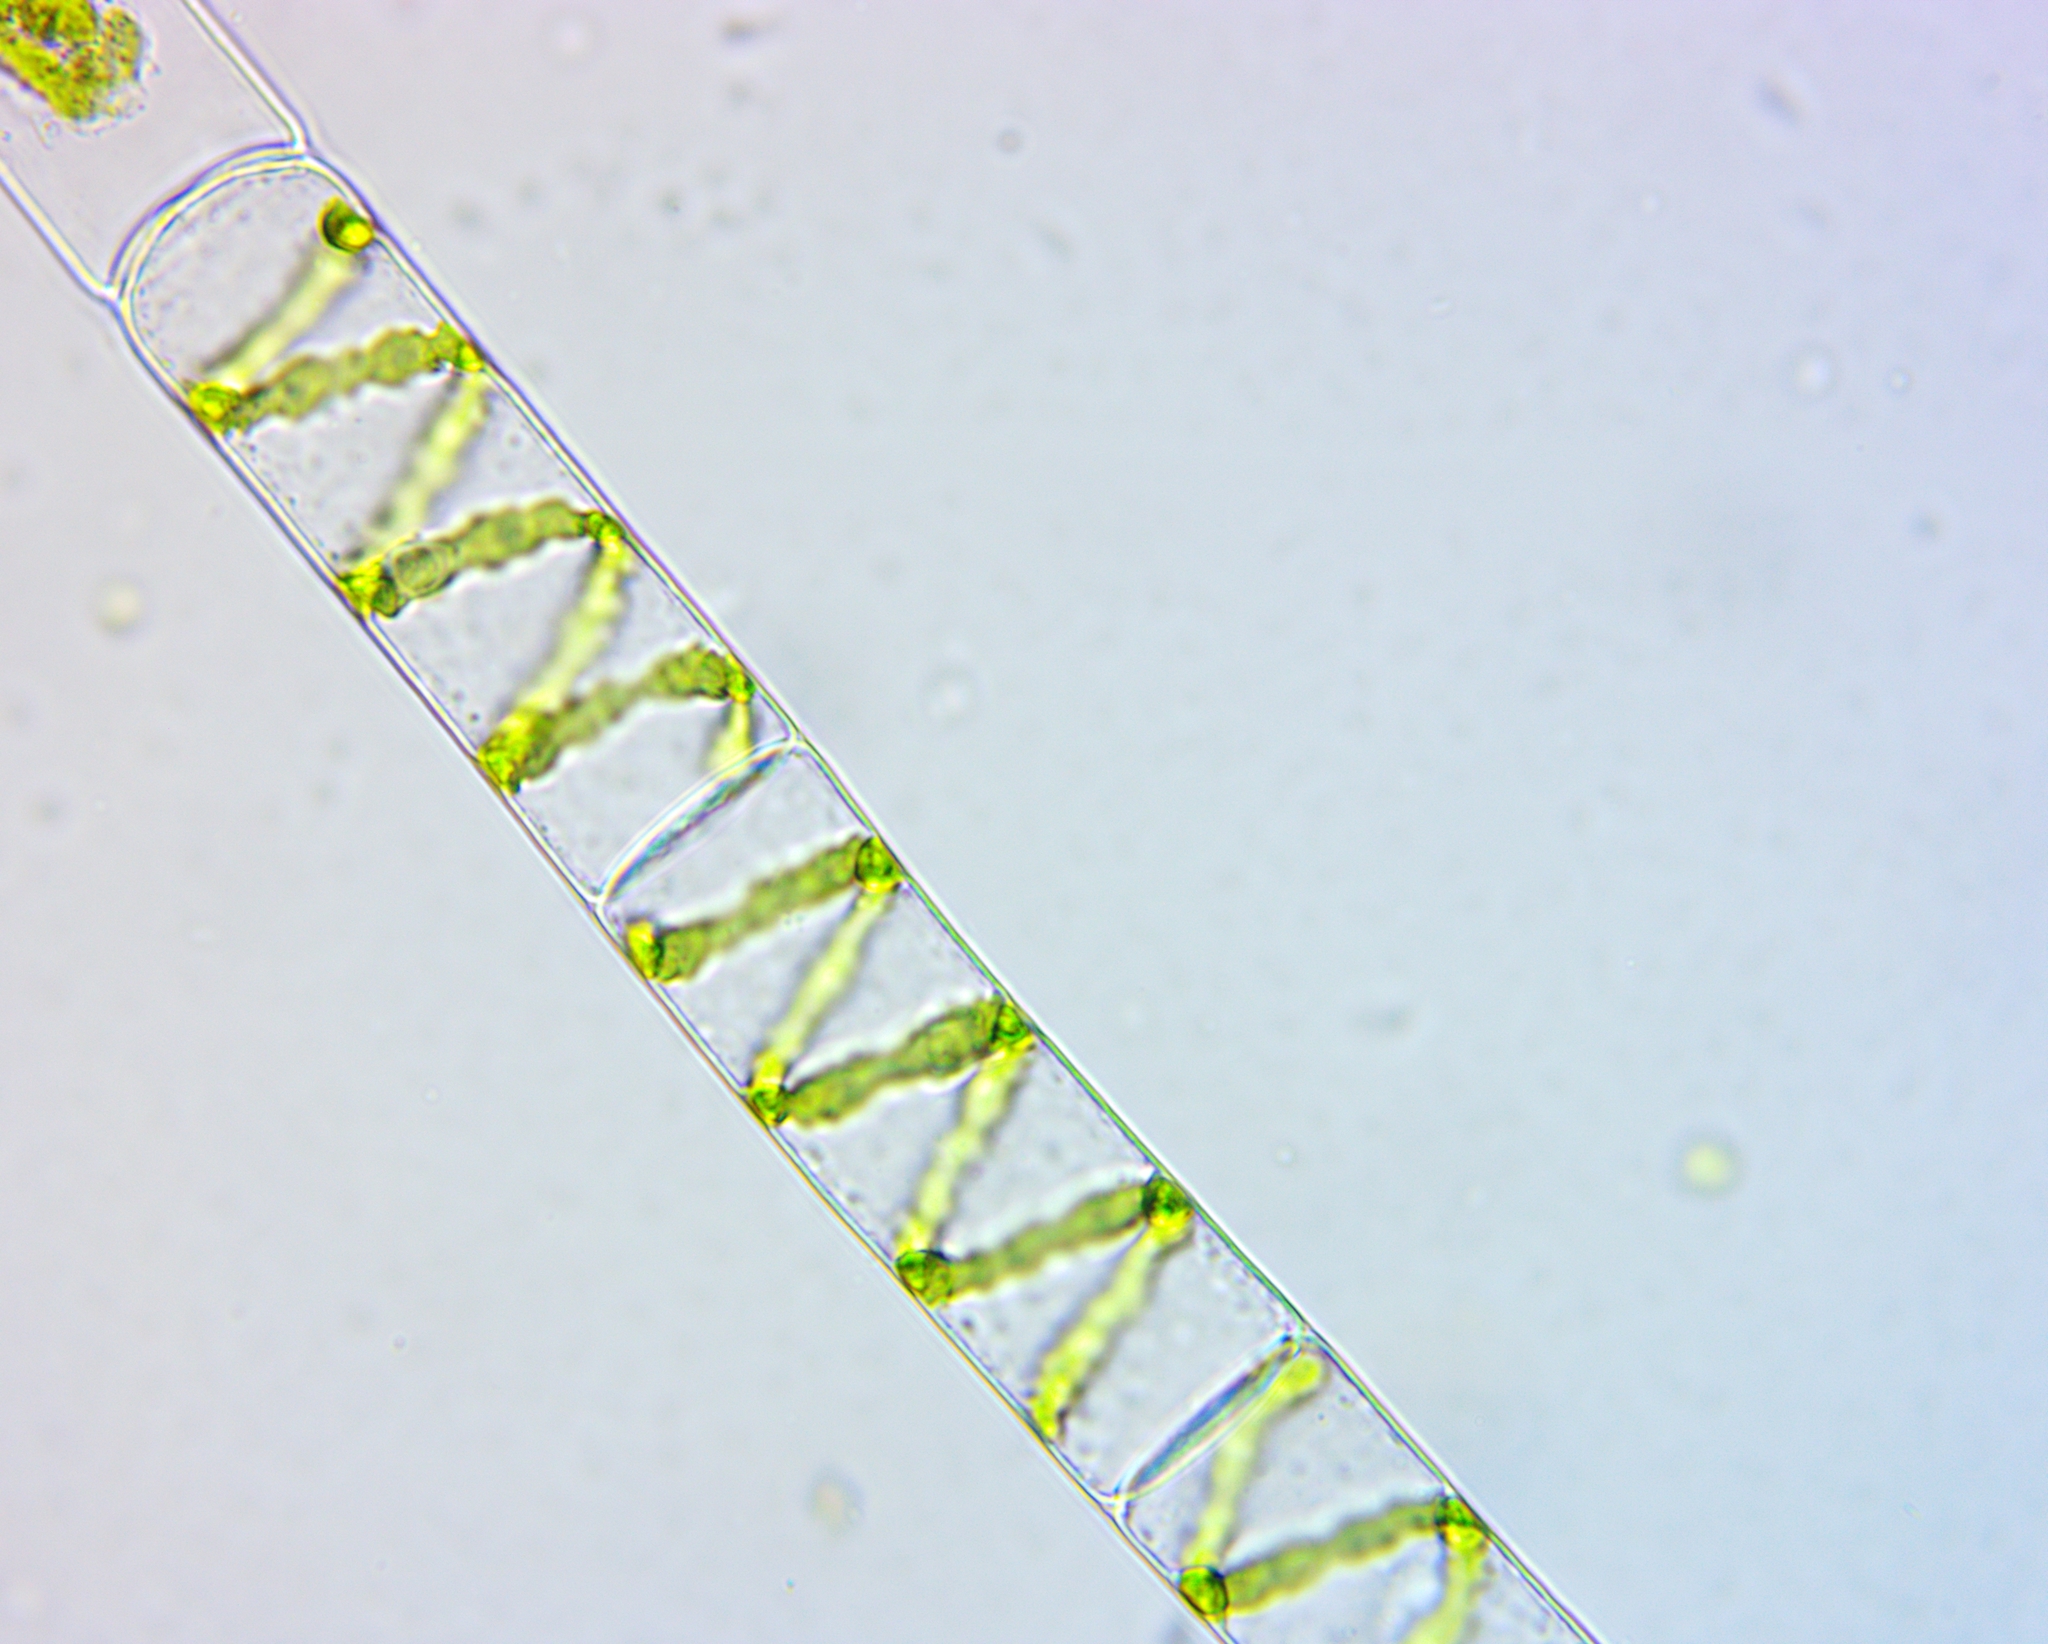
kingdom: Plantae
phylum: Charophyta
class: Zygnematophyceae
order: Zygnematales
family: Zygnemataceae
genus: Spirogyra
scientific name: Spirogyra
